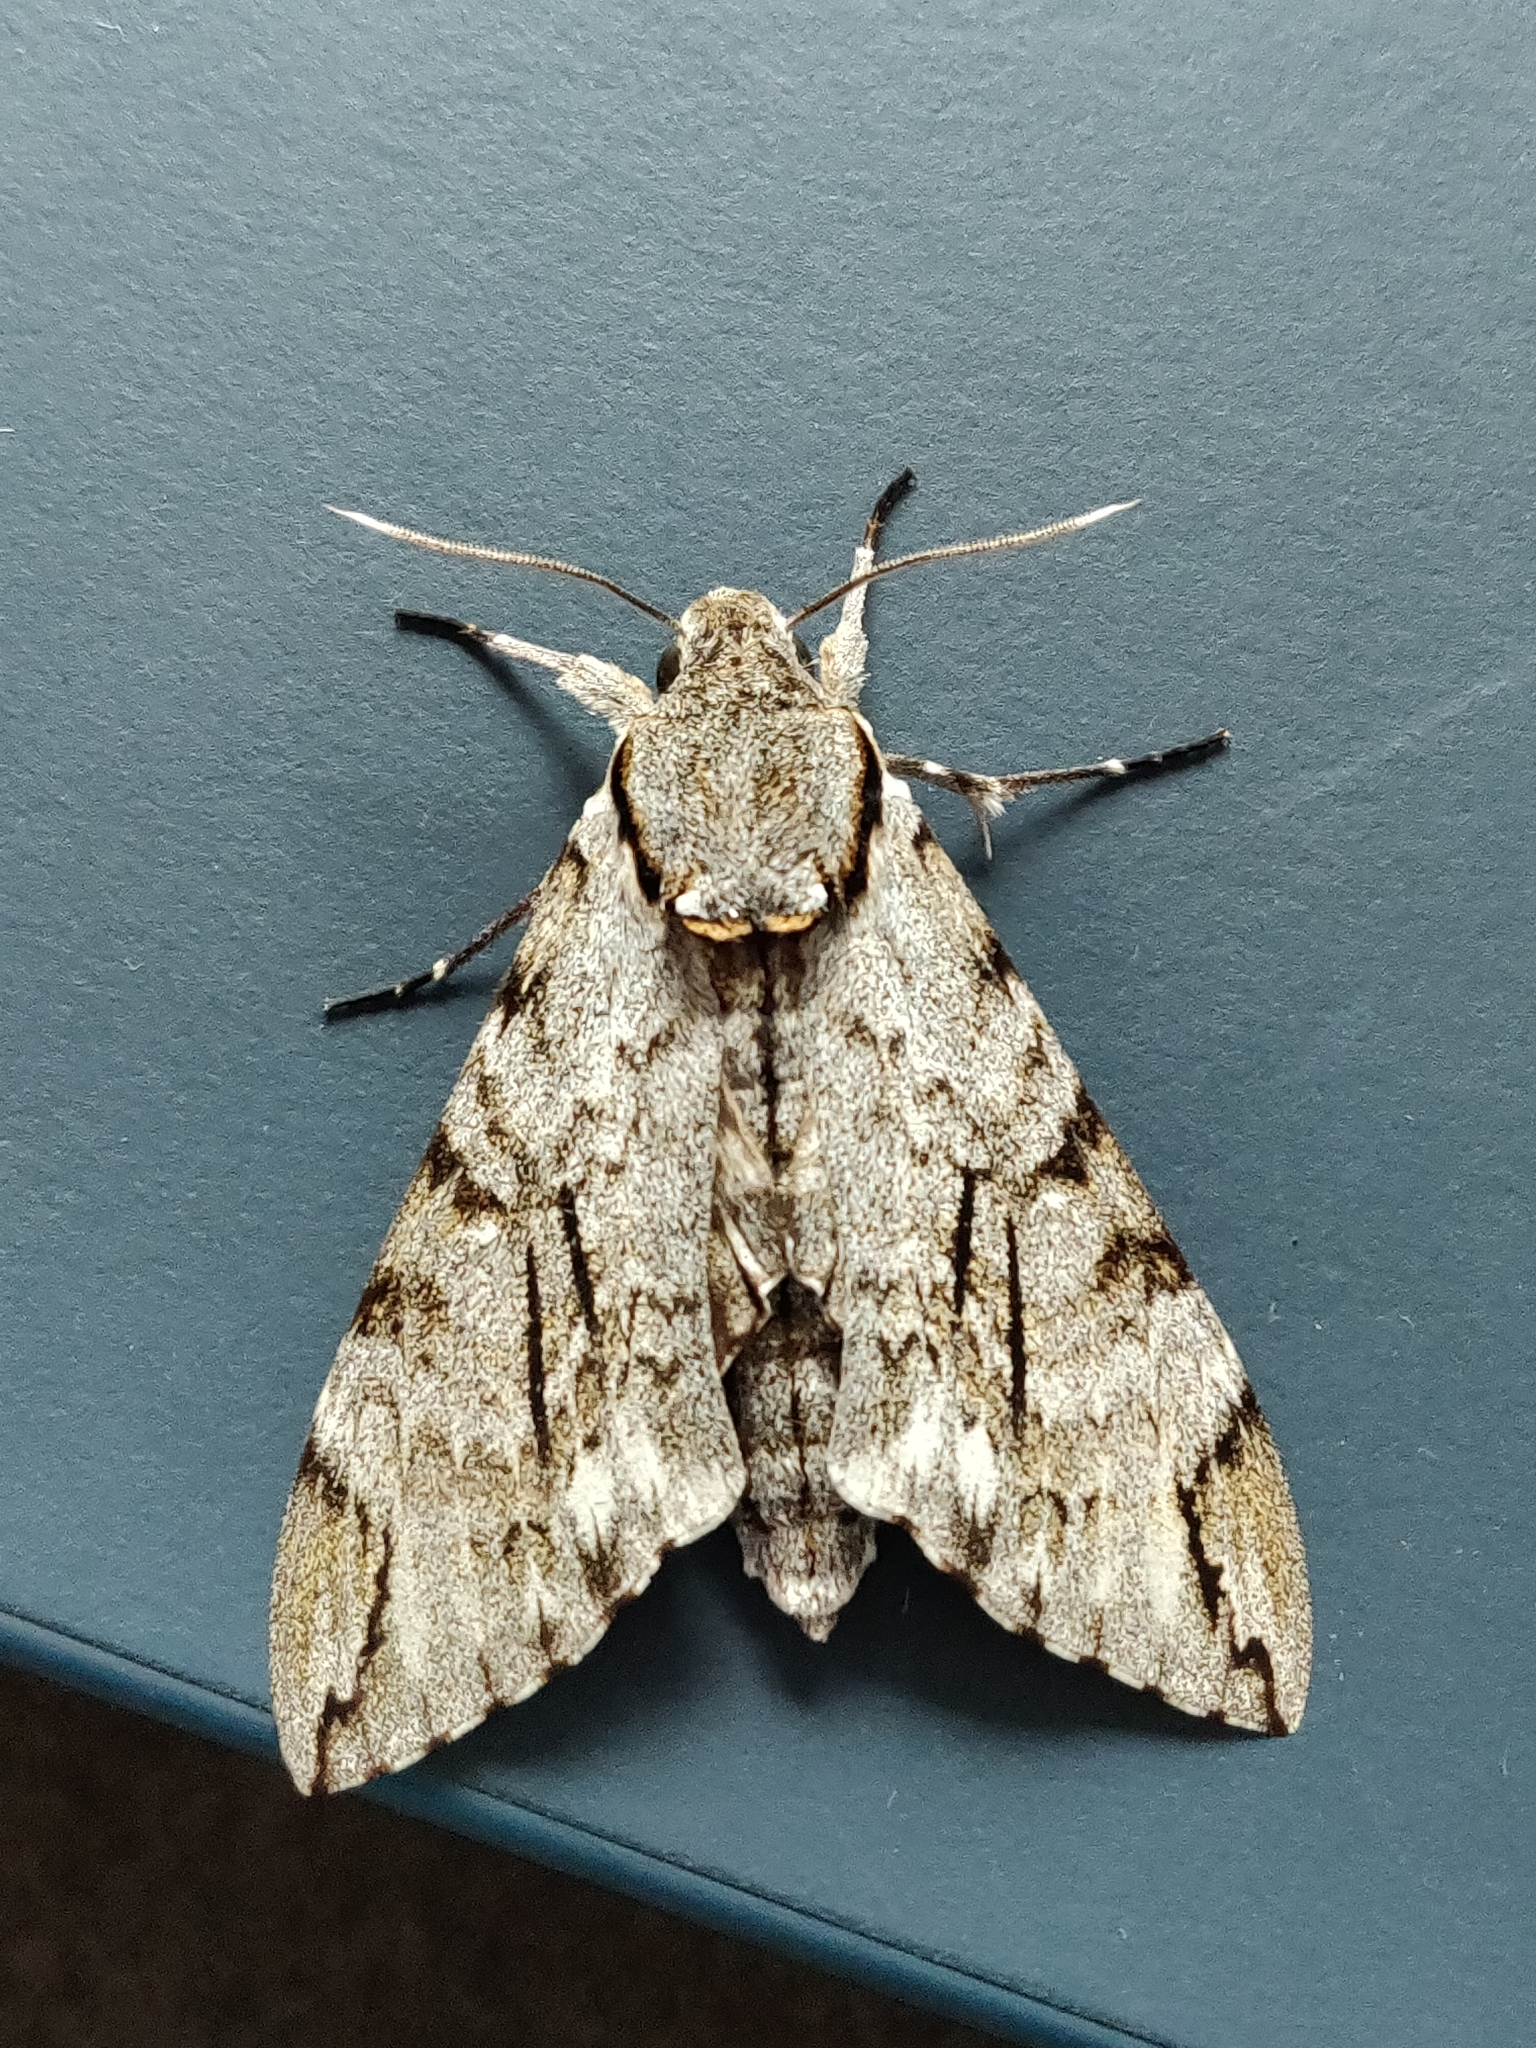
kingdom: Animalia
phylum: Arthropoda
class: Insecta
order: Lepidoptera
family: Sphingidae
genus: Psilogramma
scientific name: Psilogramma casuarinae
